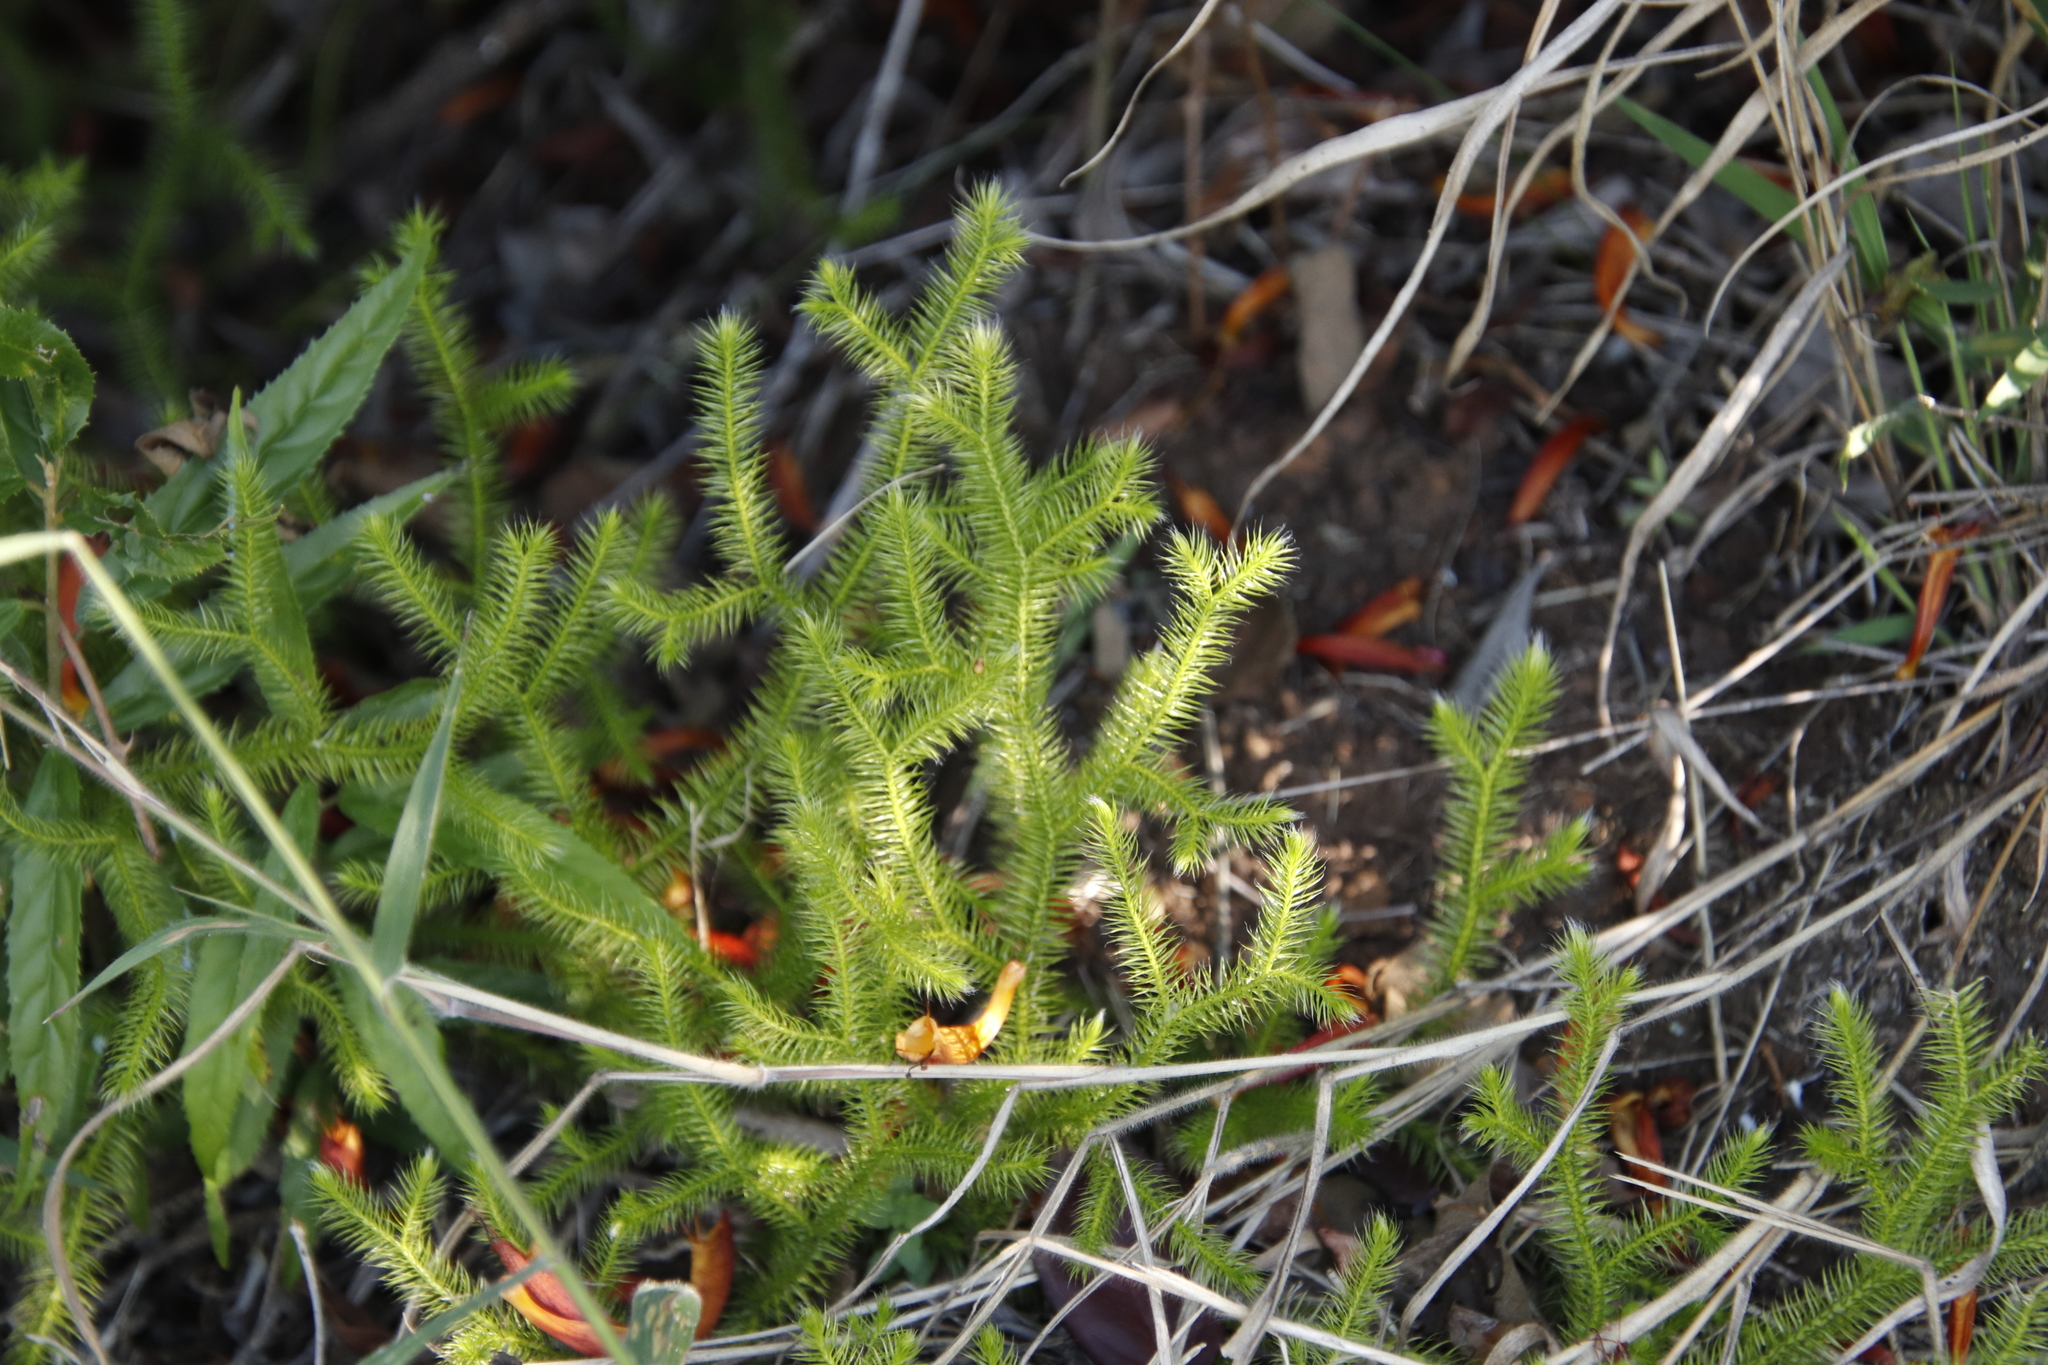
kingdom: Plantae
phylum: Tracheophyta
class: Lycopodiopsida
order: Lycopodiales
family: Lycopodiaceae
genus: Lycopodium
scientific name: Lycopodium clavatum
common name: Stag's-horn clubmoss
